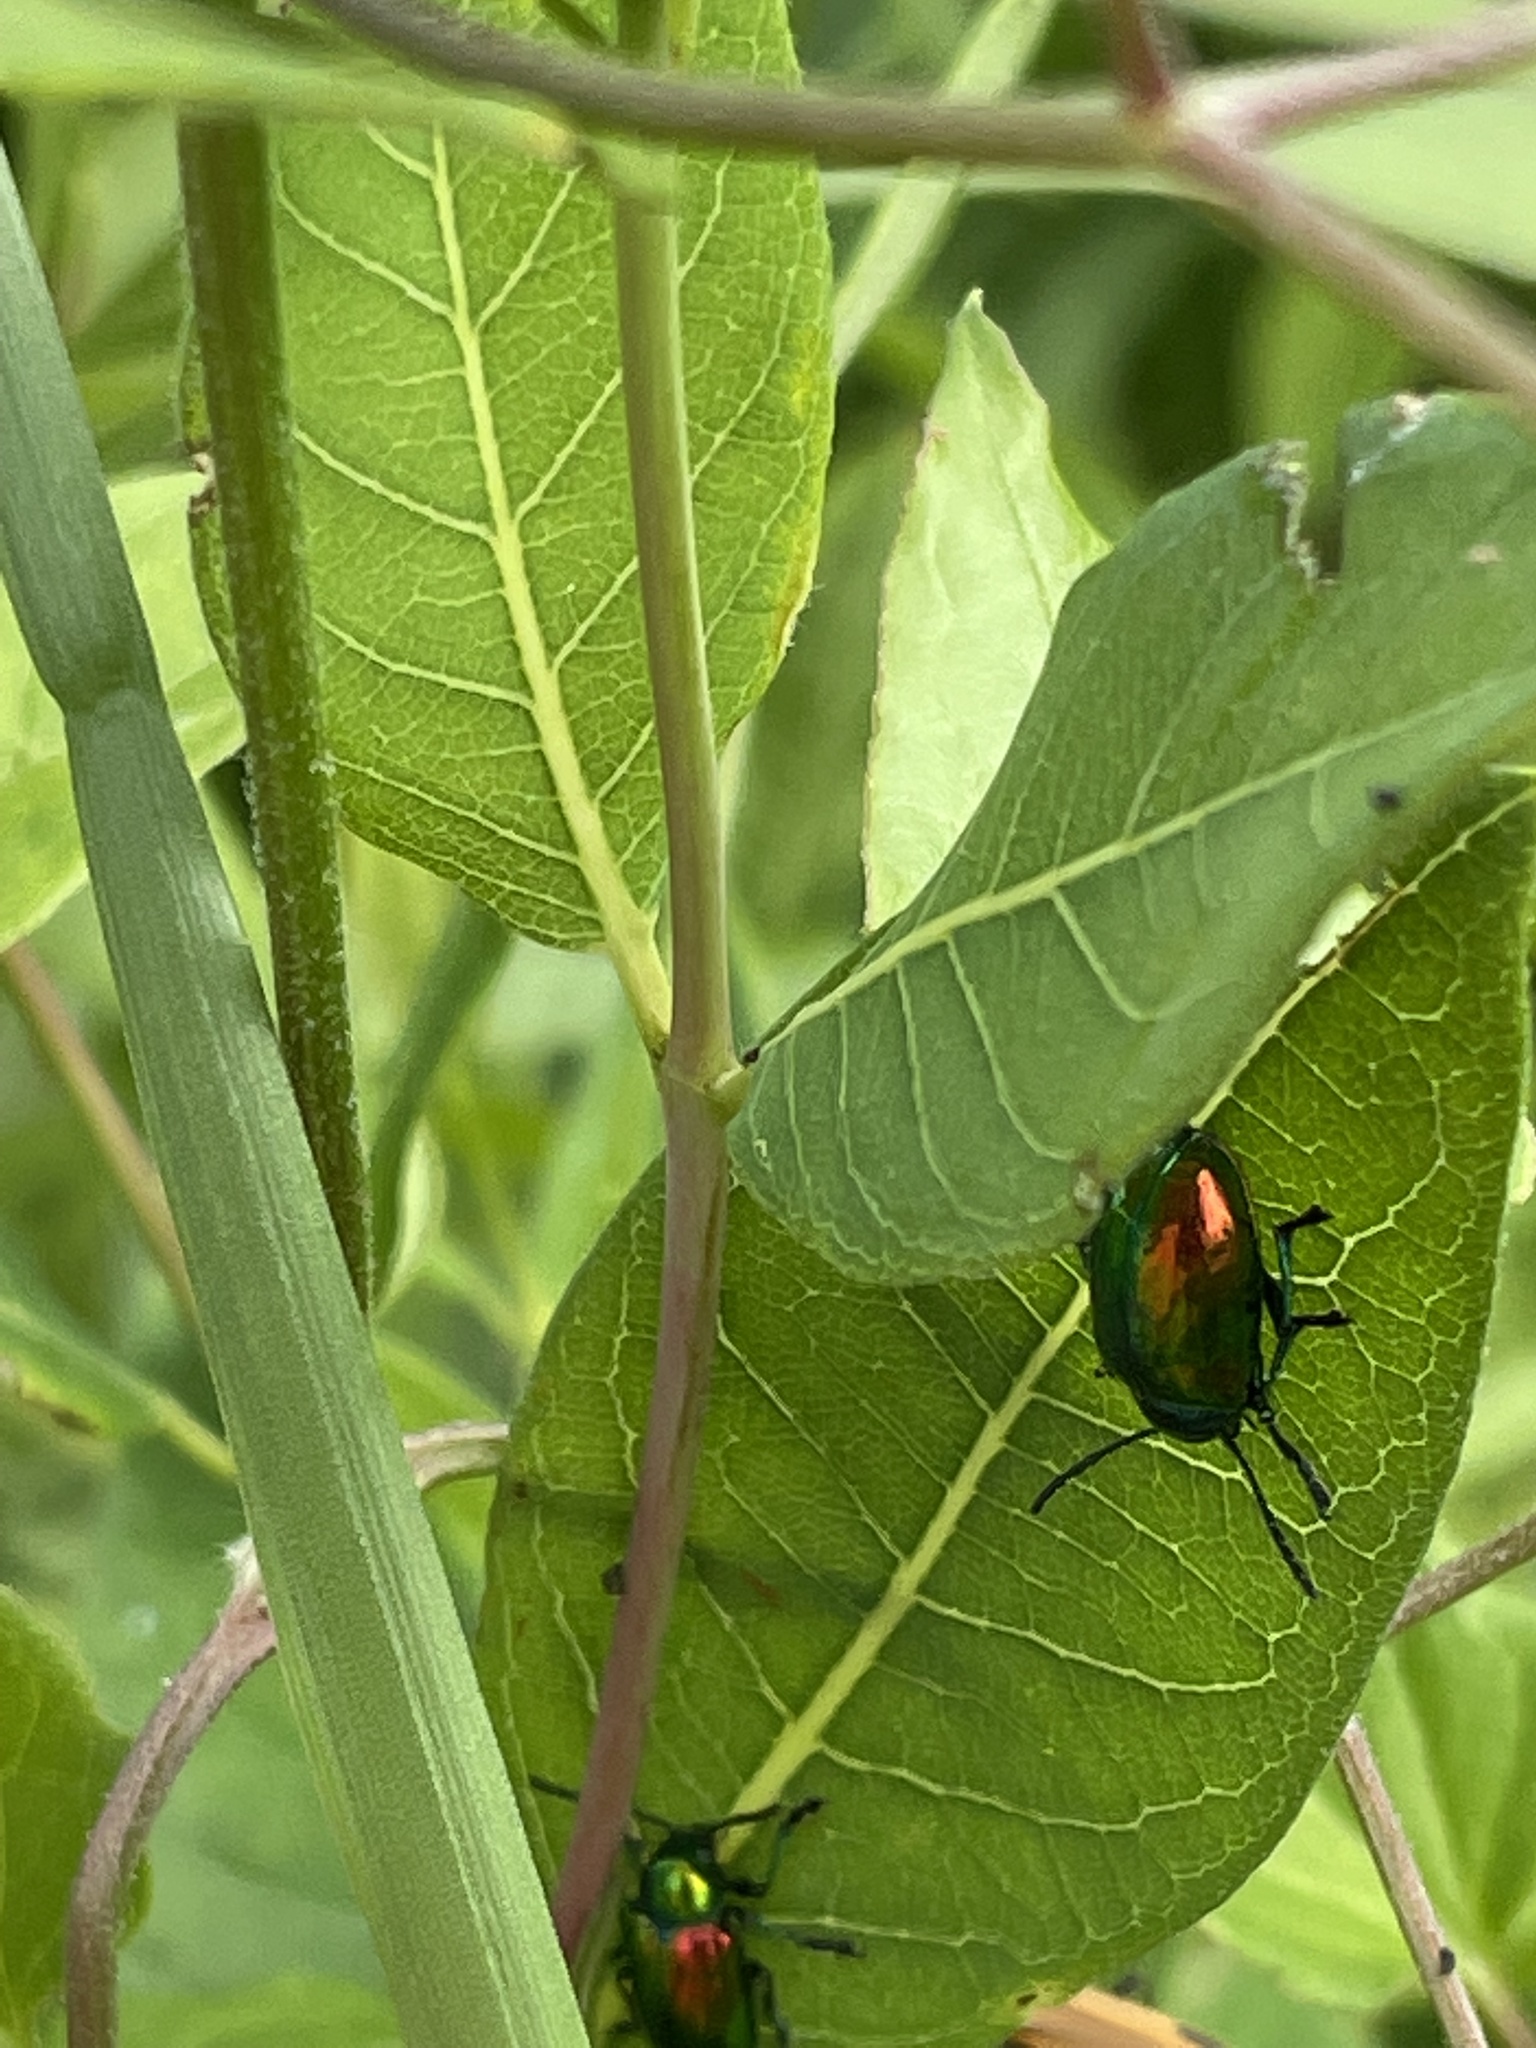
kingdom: Animalia
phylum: Arthropoda
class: Insecta
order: Coleoptera
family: Chrysomelidae
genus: Chrysochus
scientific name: Chrysochus auratus
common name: Dogbane leaf beetle
